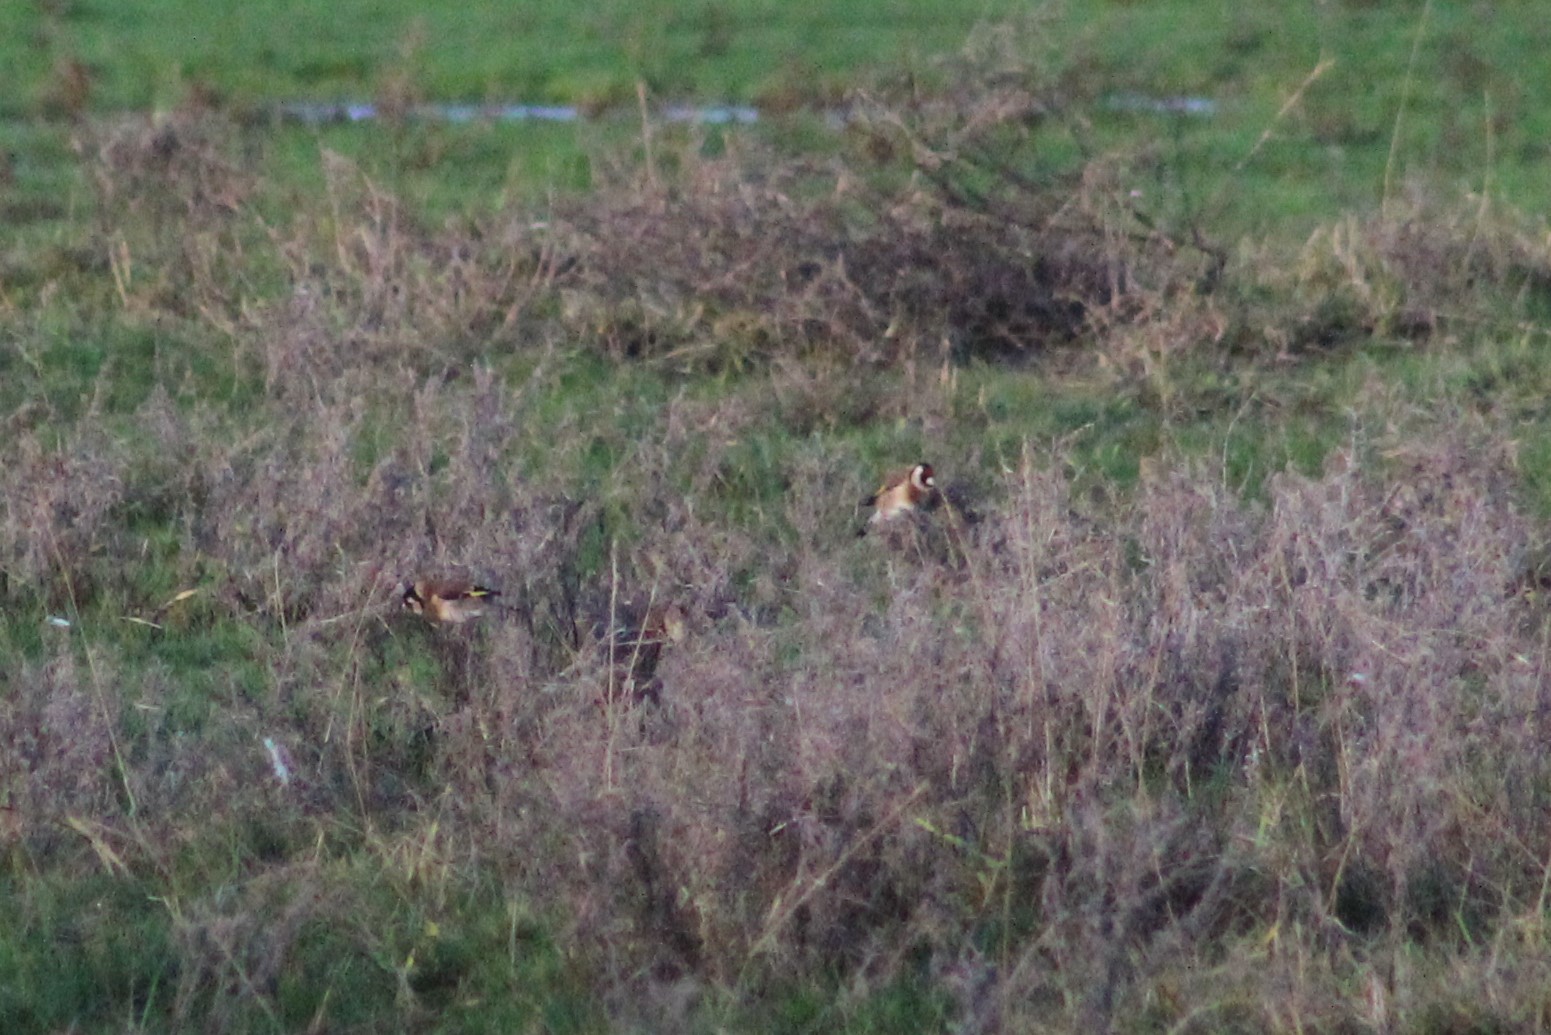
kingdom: Animalia
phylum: Chordata
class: Aves
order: Passeriformes
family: Fringillidae
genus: Carduelis
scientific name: Carduelis carduelis
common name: European goldfinch
